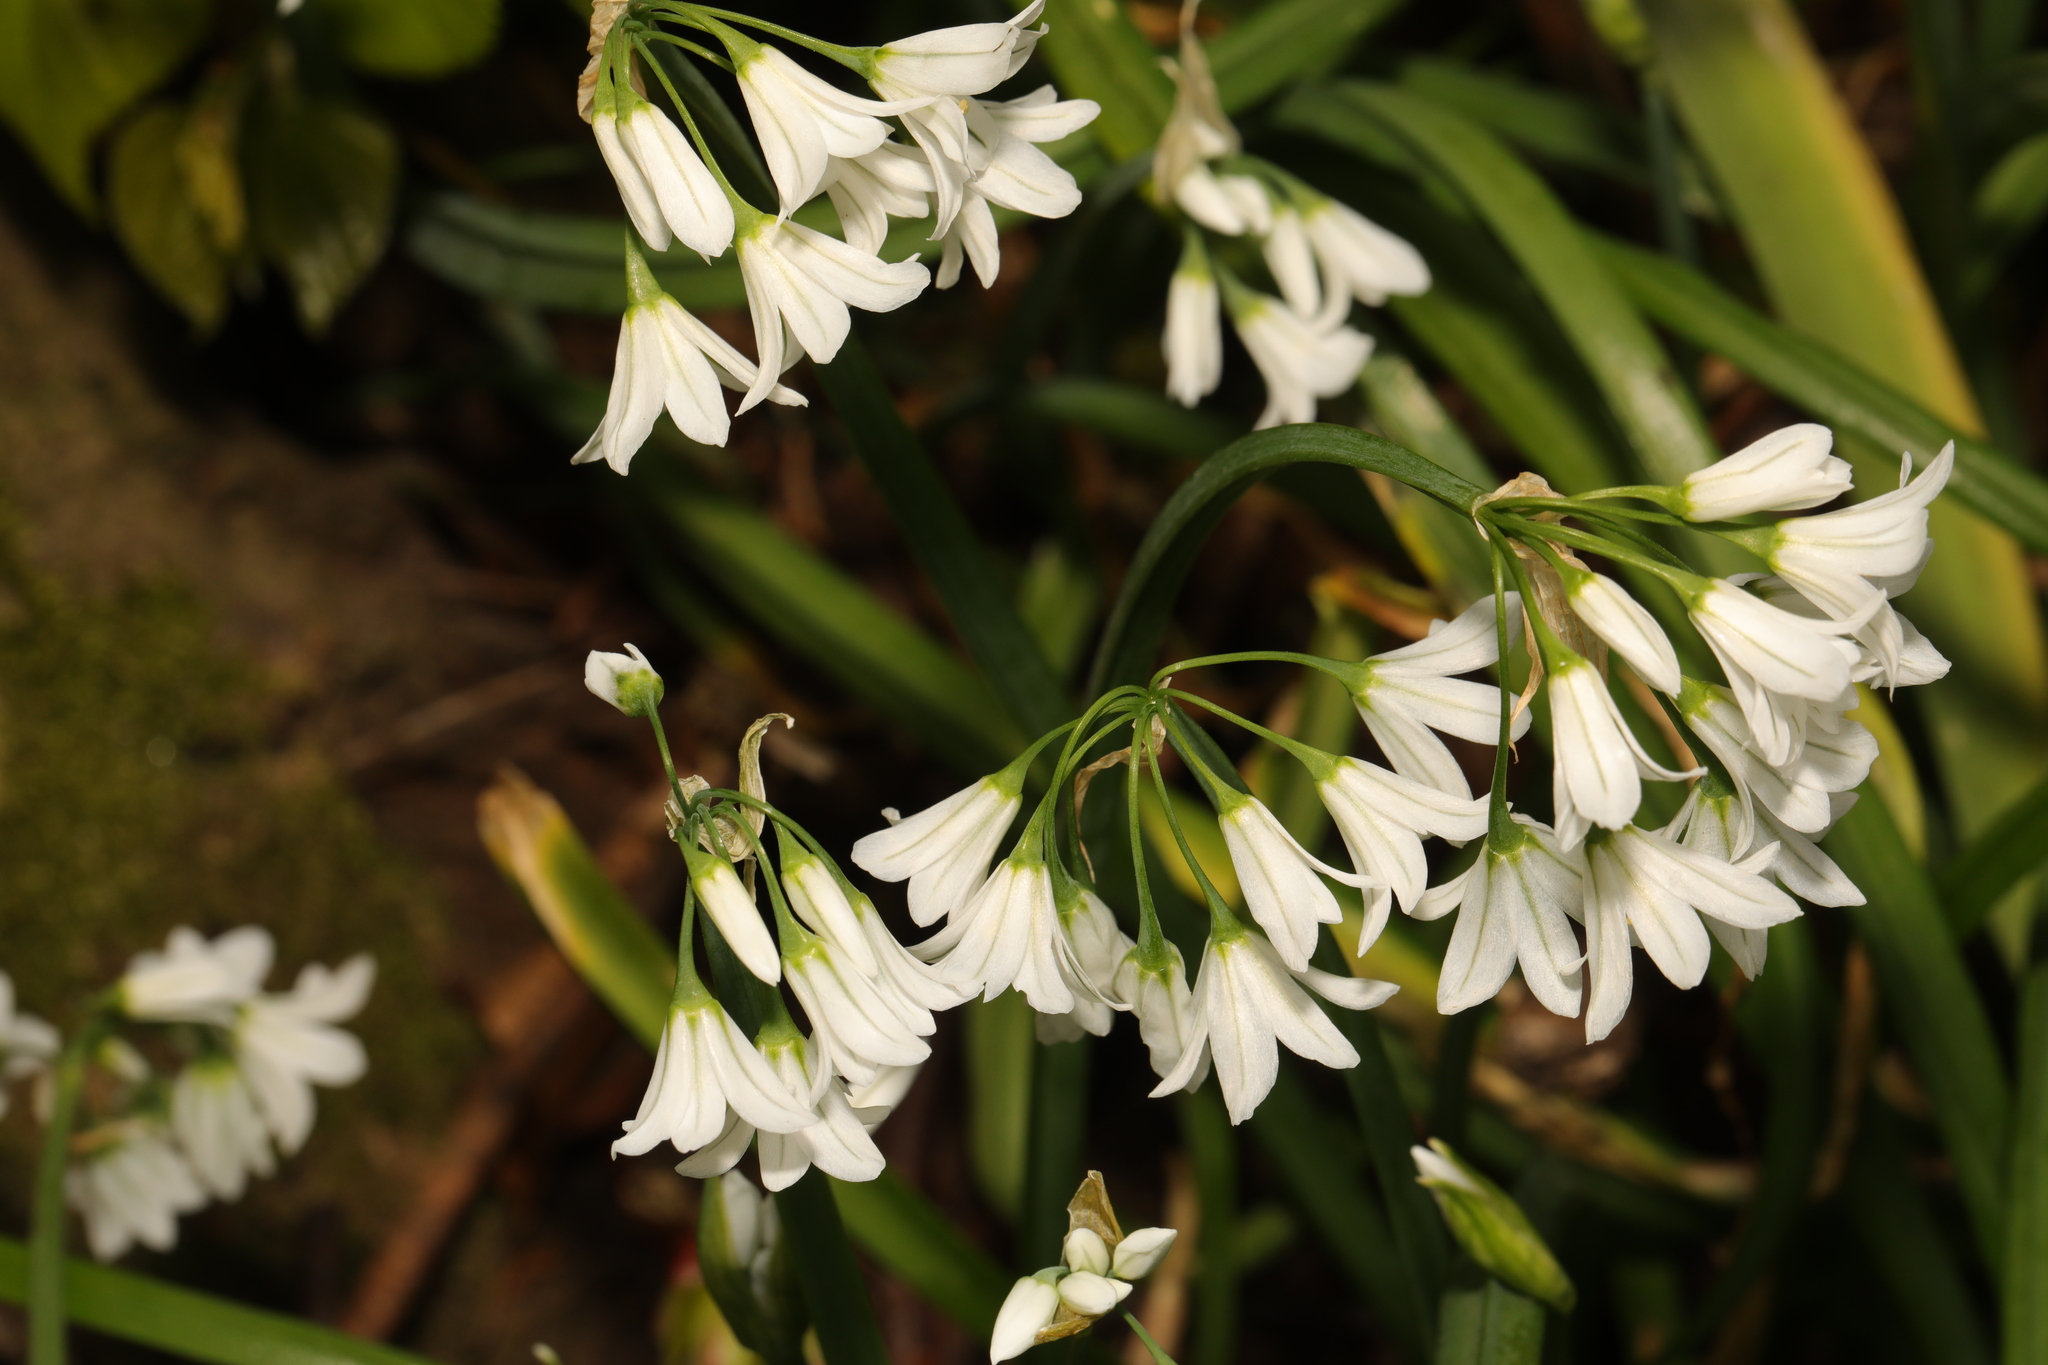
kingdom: Plantae
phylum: Tracheophyta
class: Liliopsida
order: Asparagales
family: Amaryllidaceae
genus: Allium
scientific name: Allium triquetrum
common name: Three-cornered garlic
